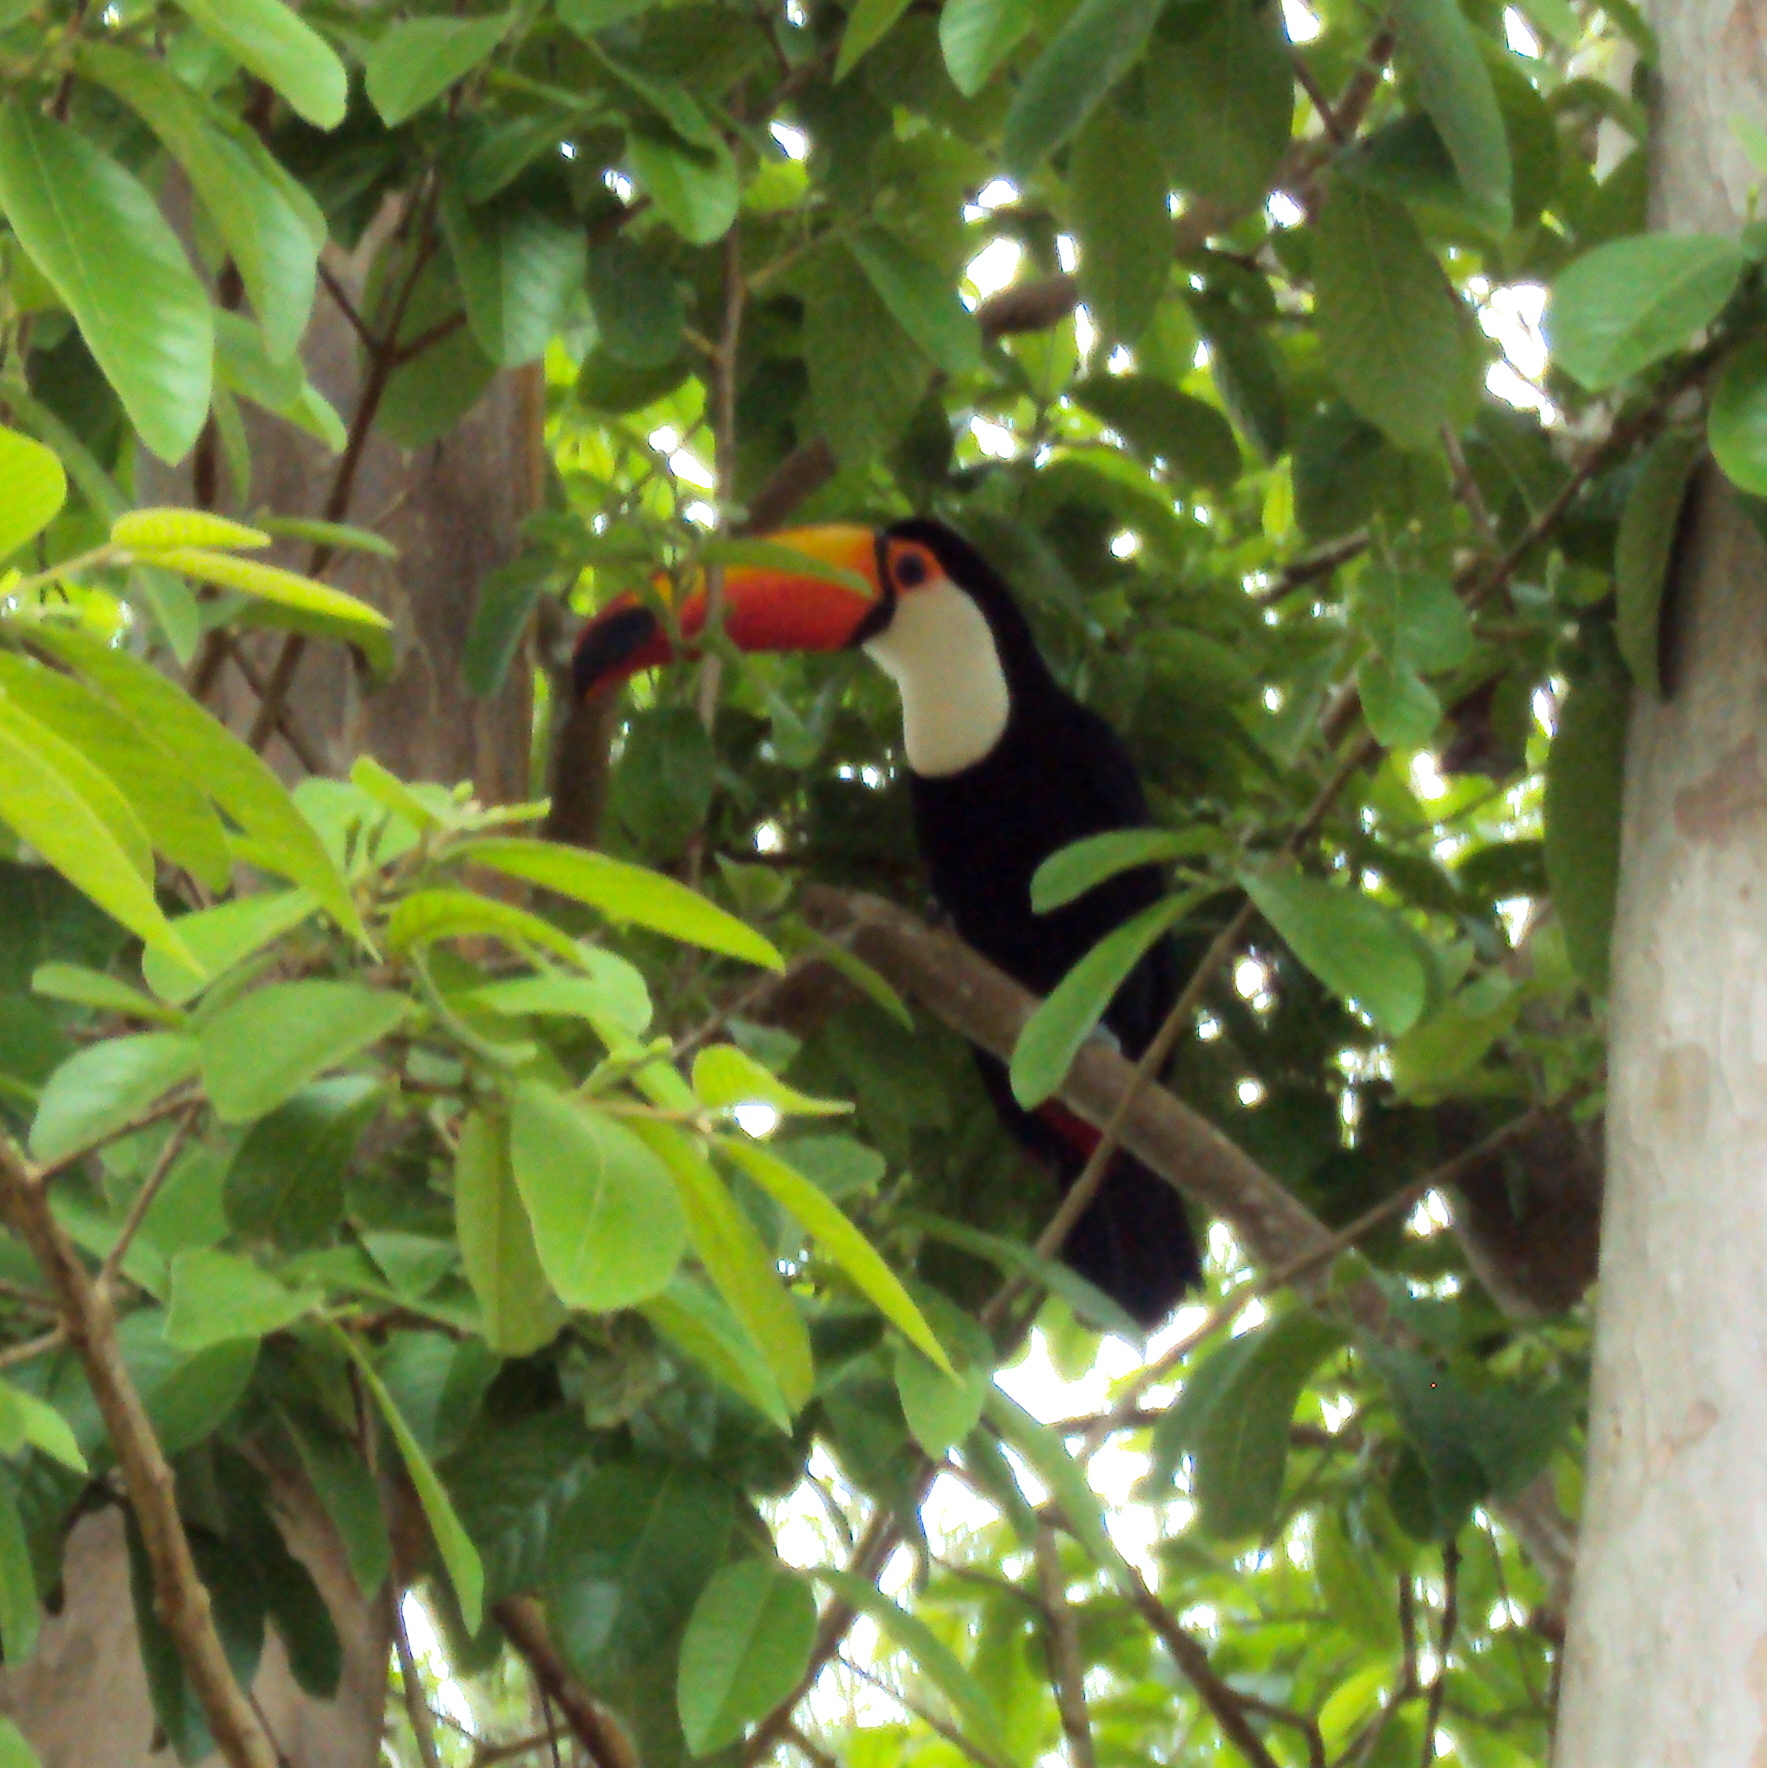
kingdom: Animalia
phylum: Chordata
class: Aves
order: Piciformes
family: Ramphastidae
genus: Ramphastos
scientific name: Ramphastos toco
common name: Toco toucan
